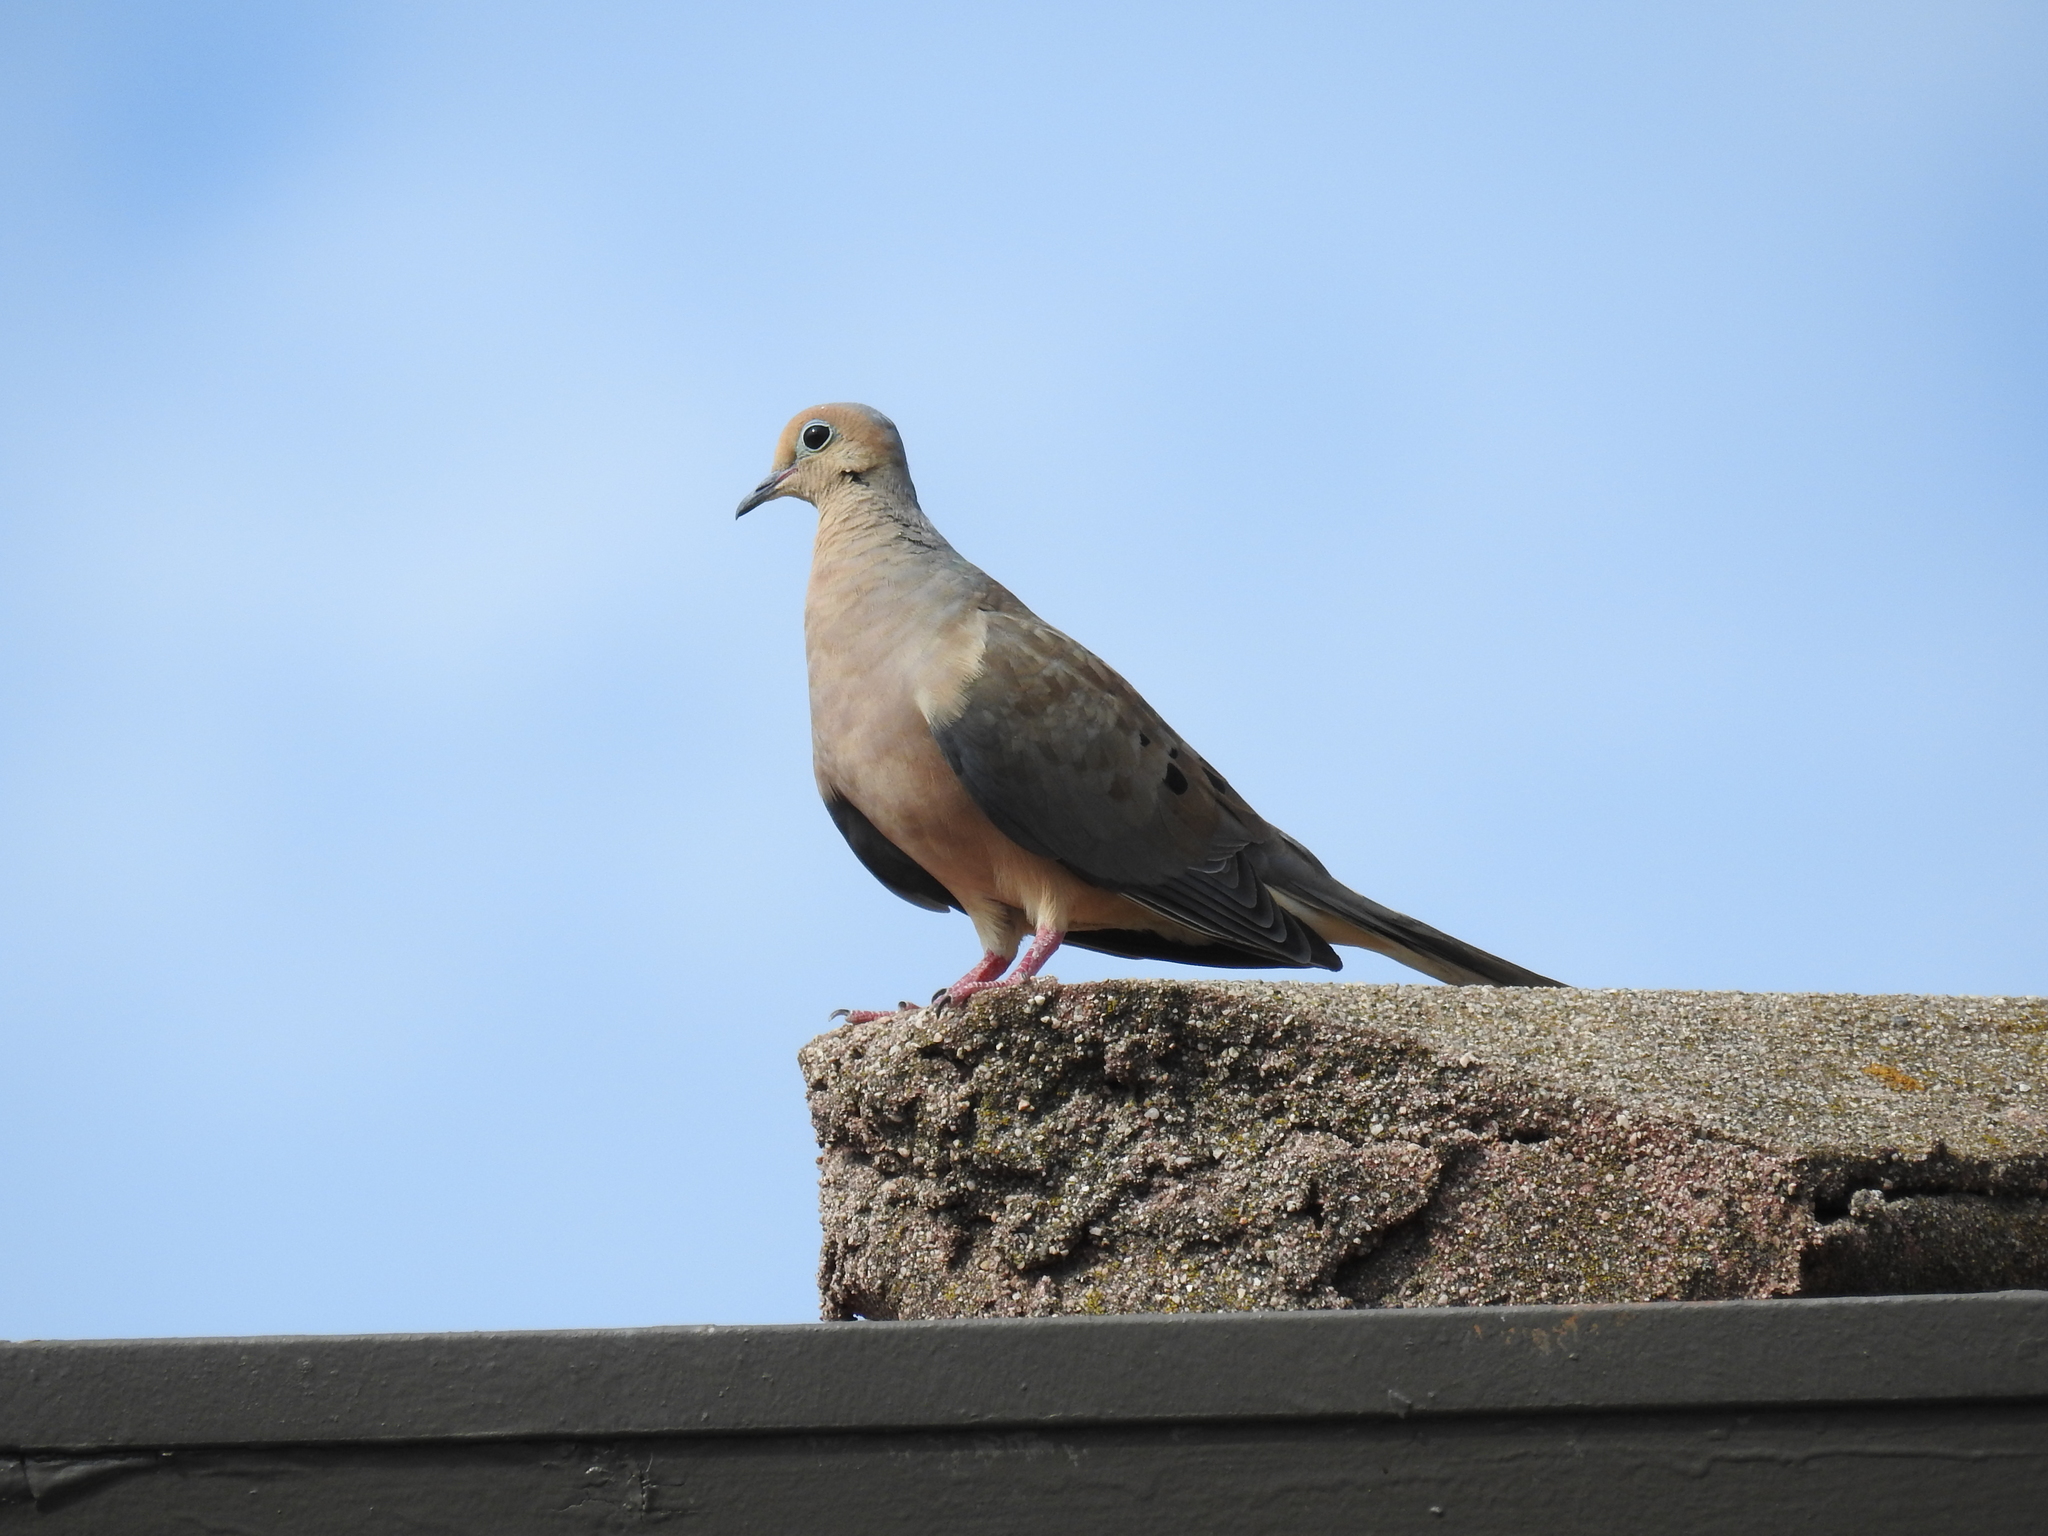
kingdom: Animalia
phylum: Chordata
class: Aves
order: Columbiformes
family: Columbidae
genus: Zenaida
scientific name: Zenaida macroura
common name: Mourning dove
